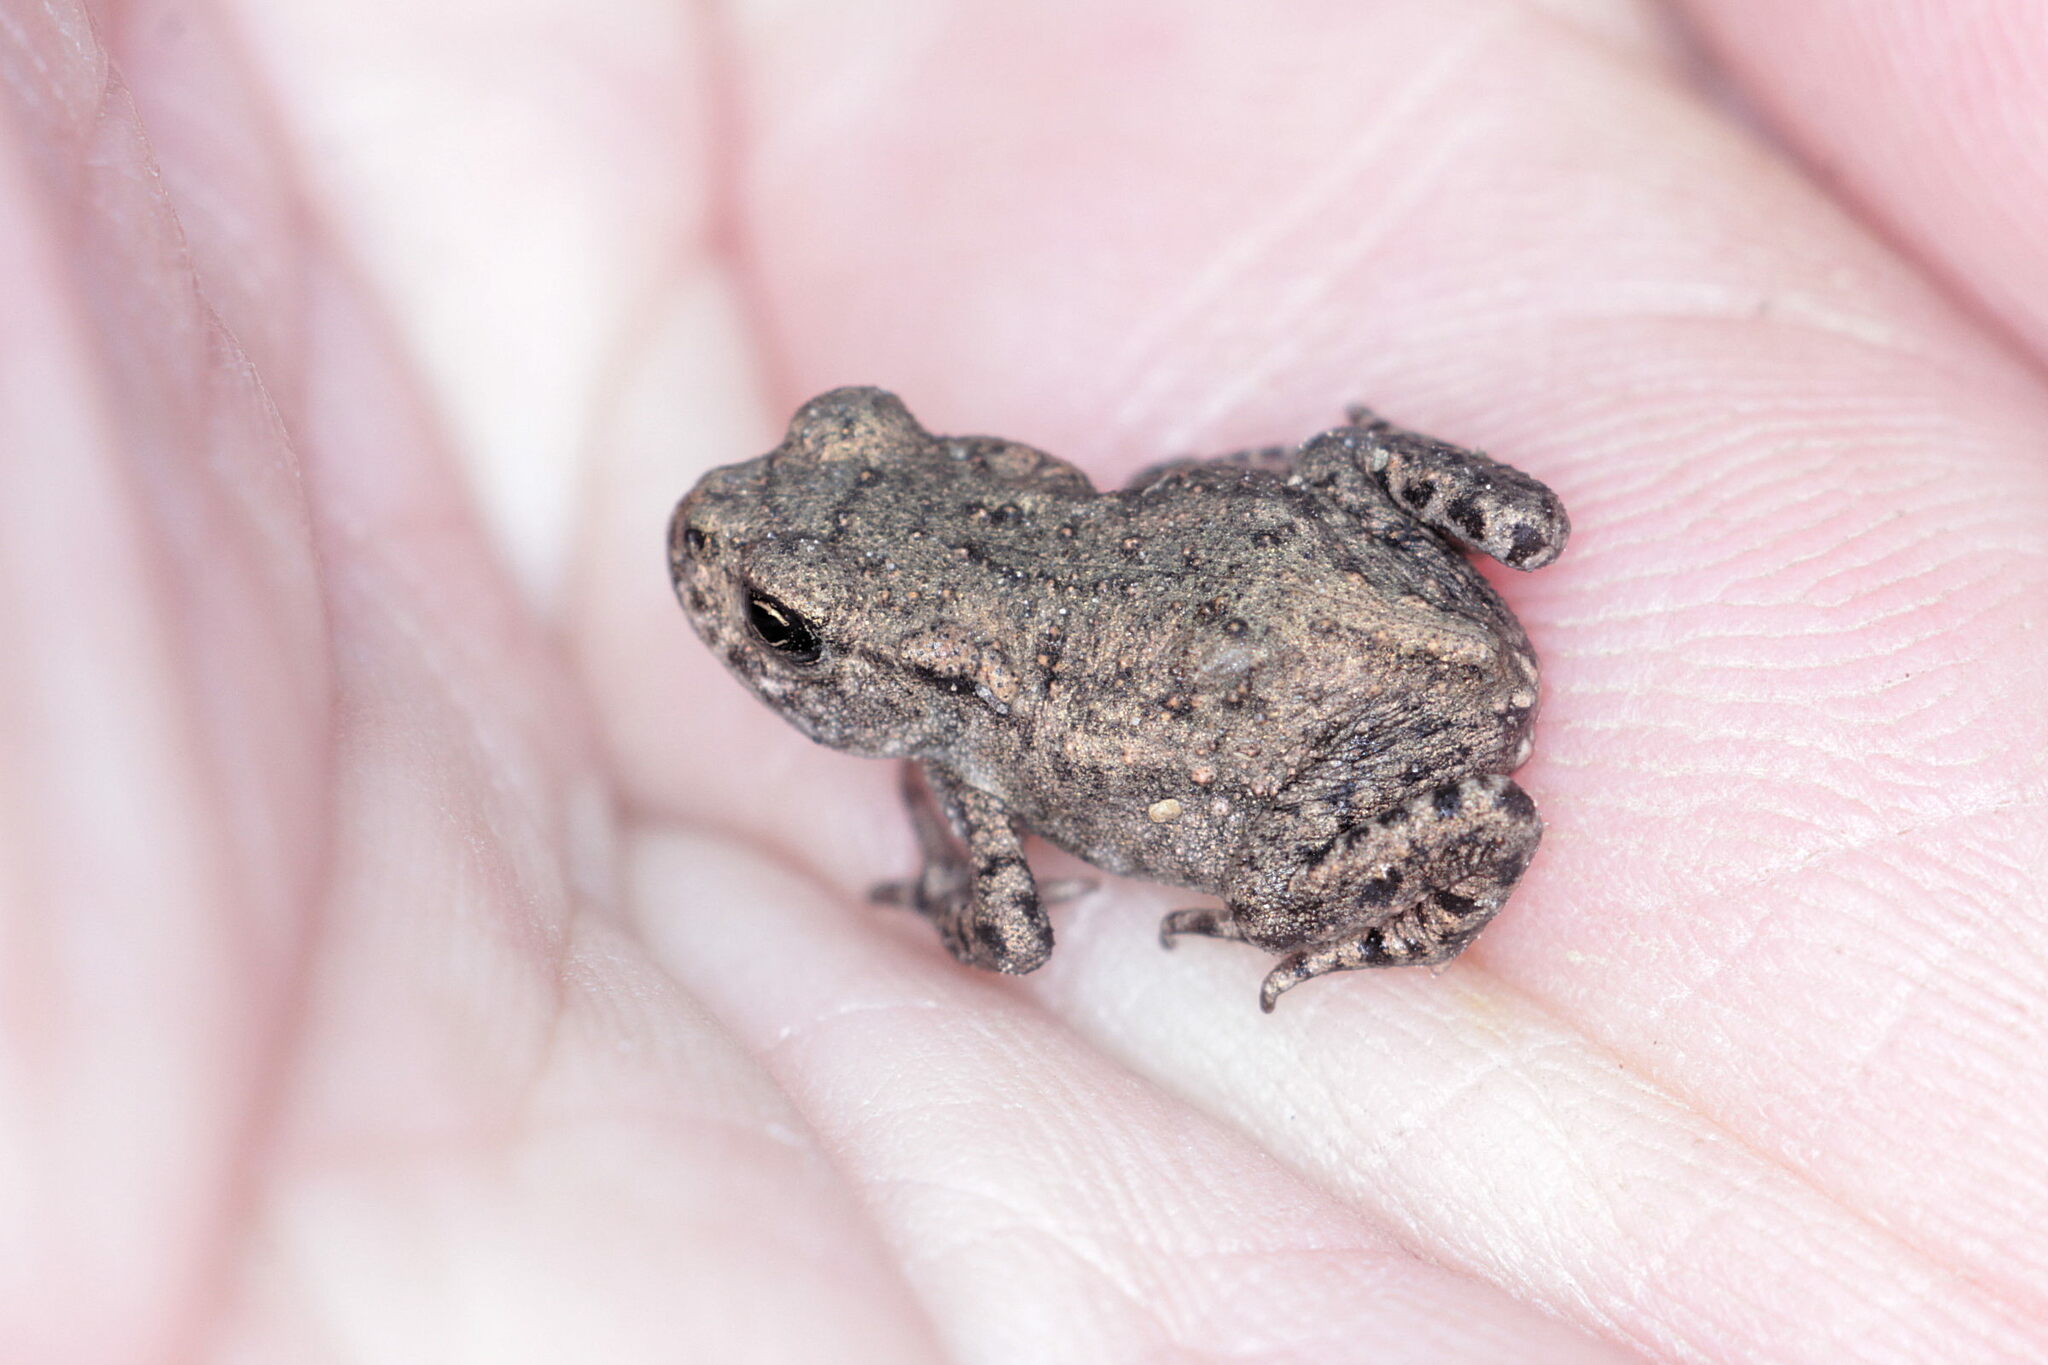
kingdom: Animalia
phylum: Chordata
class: Amphibia
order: Anura
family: Bufonidae
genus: Bufo
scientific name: Bufo bufo
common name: Common toad
